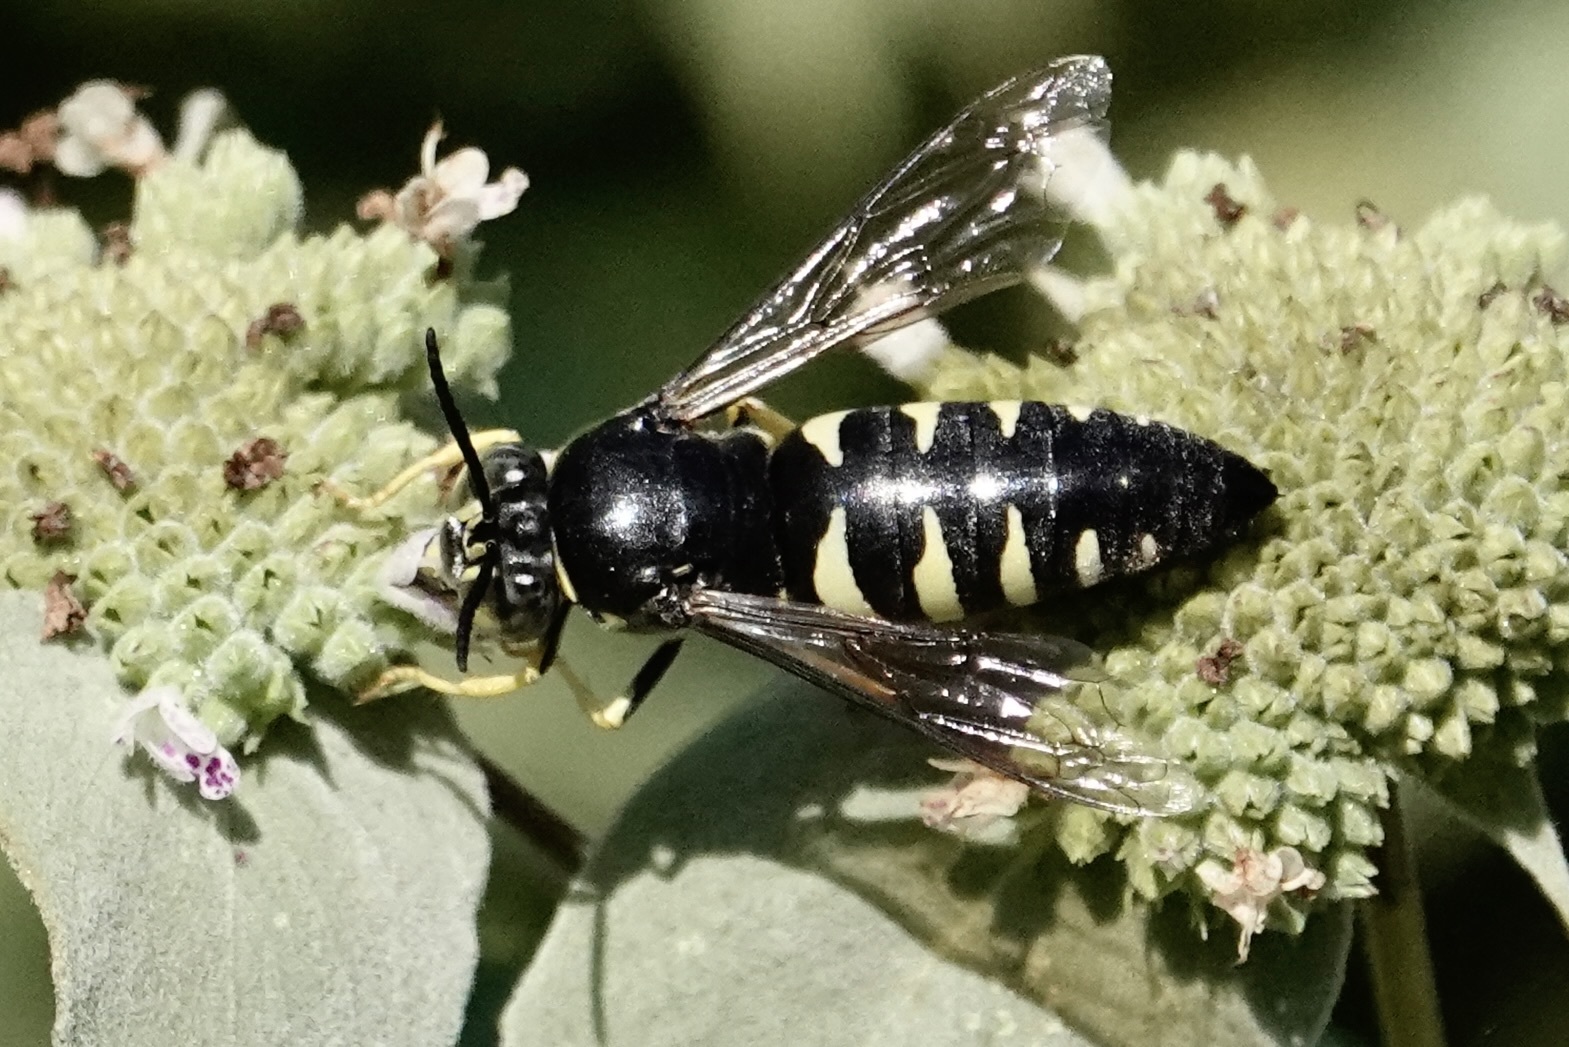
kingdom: Animalia
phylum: Arthropoda
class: Insecta
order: Hymenoptera
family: Crabronidae
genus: Bicyrtes
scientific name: Bicyrtes quadrifasciatus
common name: Four-banded stink bug hunter wasp
